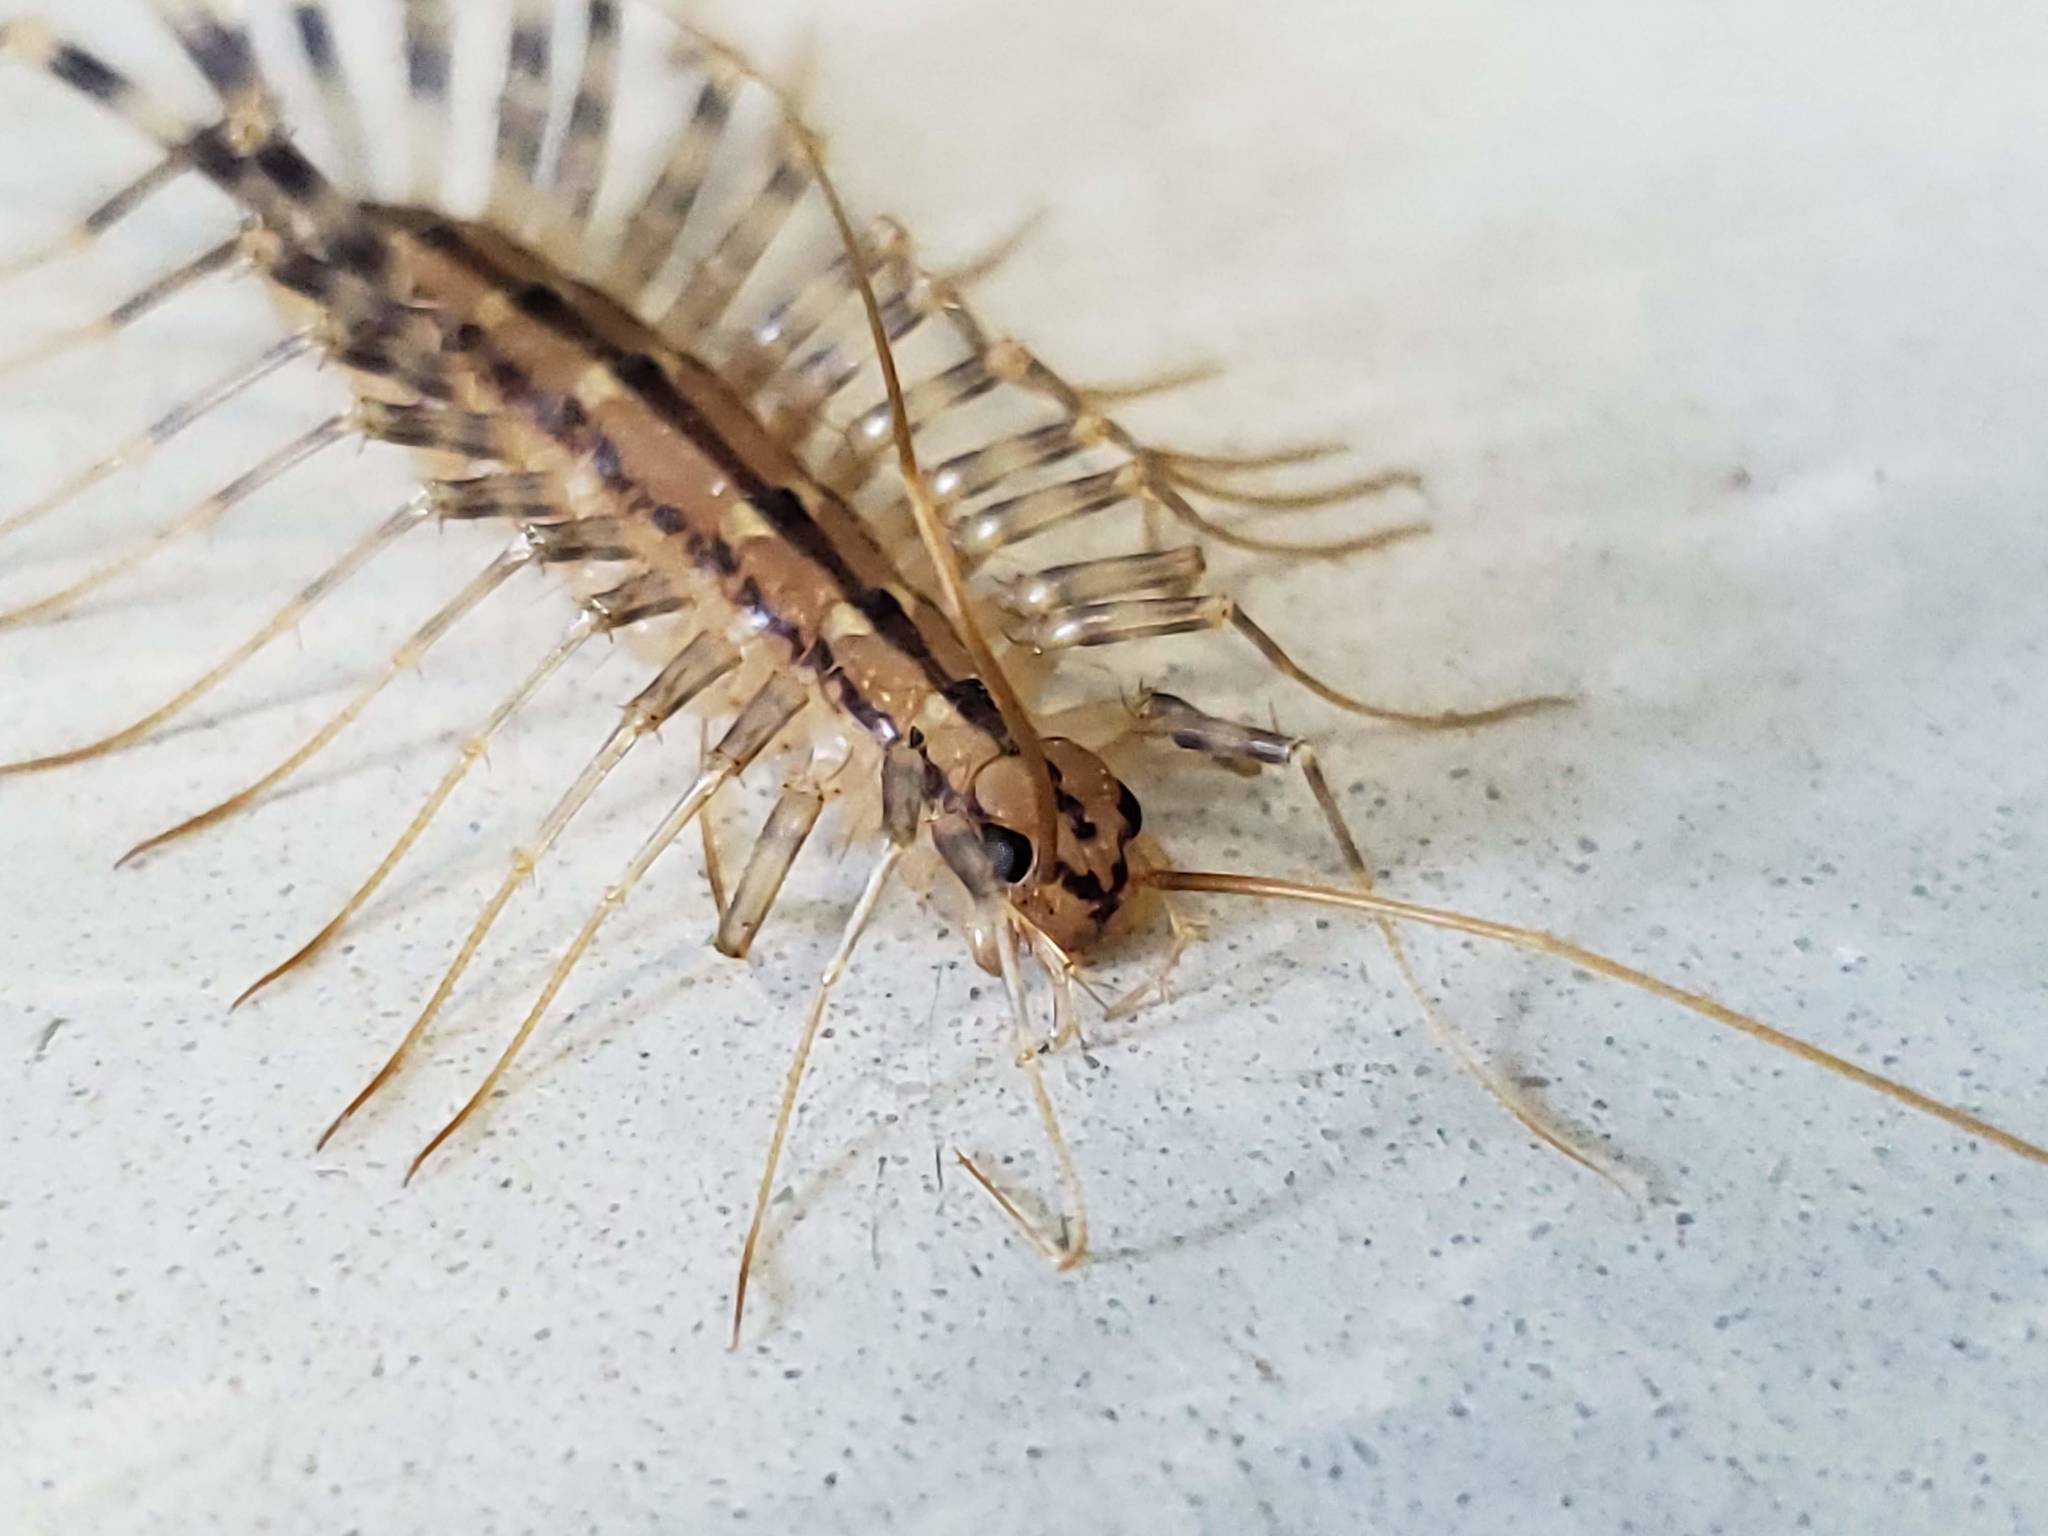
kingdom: Animalia
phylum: Arthropoda
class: Chilopoda
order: Scutigeromorpha
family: Scutigeridae
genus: Scutigera
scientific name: Scutigera coleoptrata
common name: House centipede
